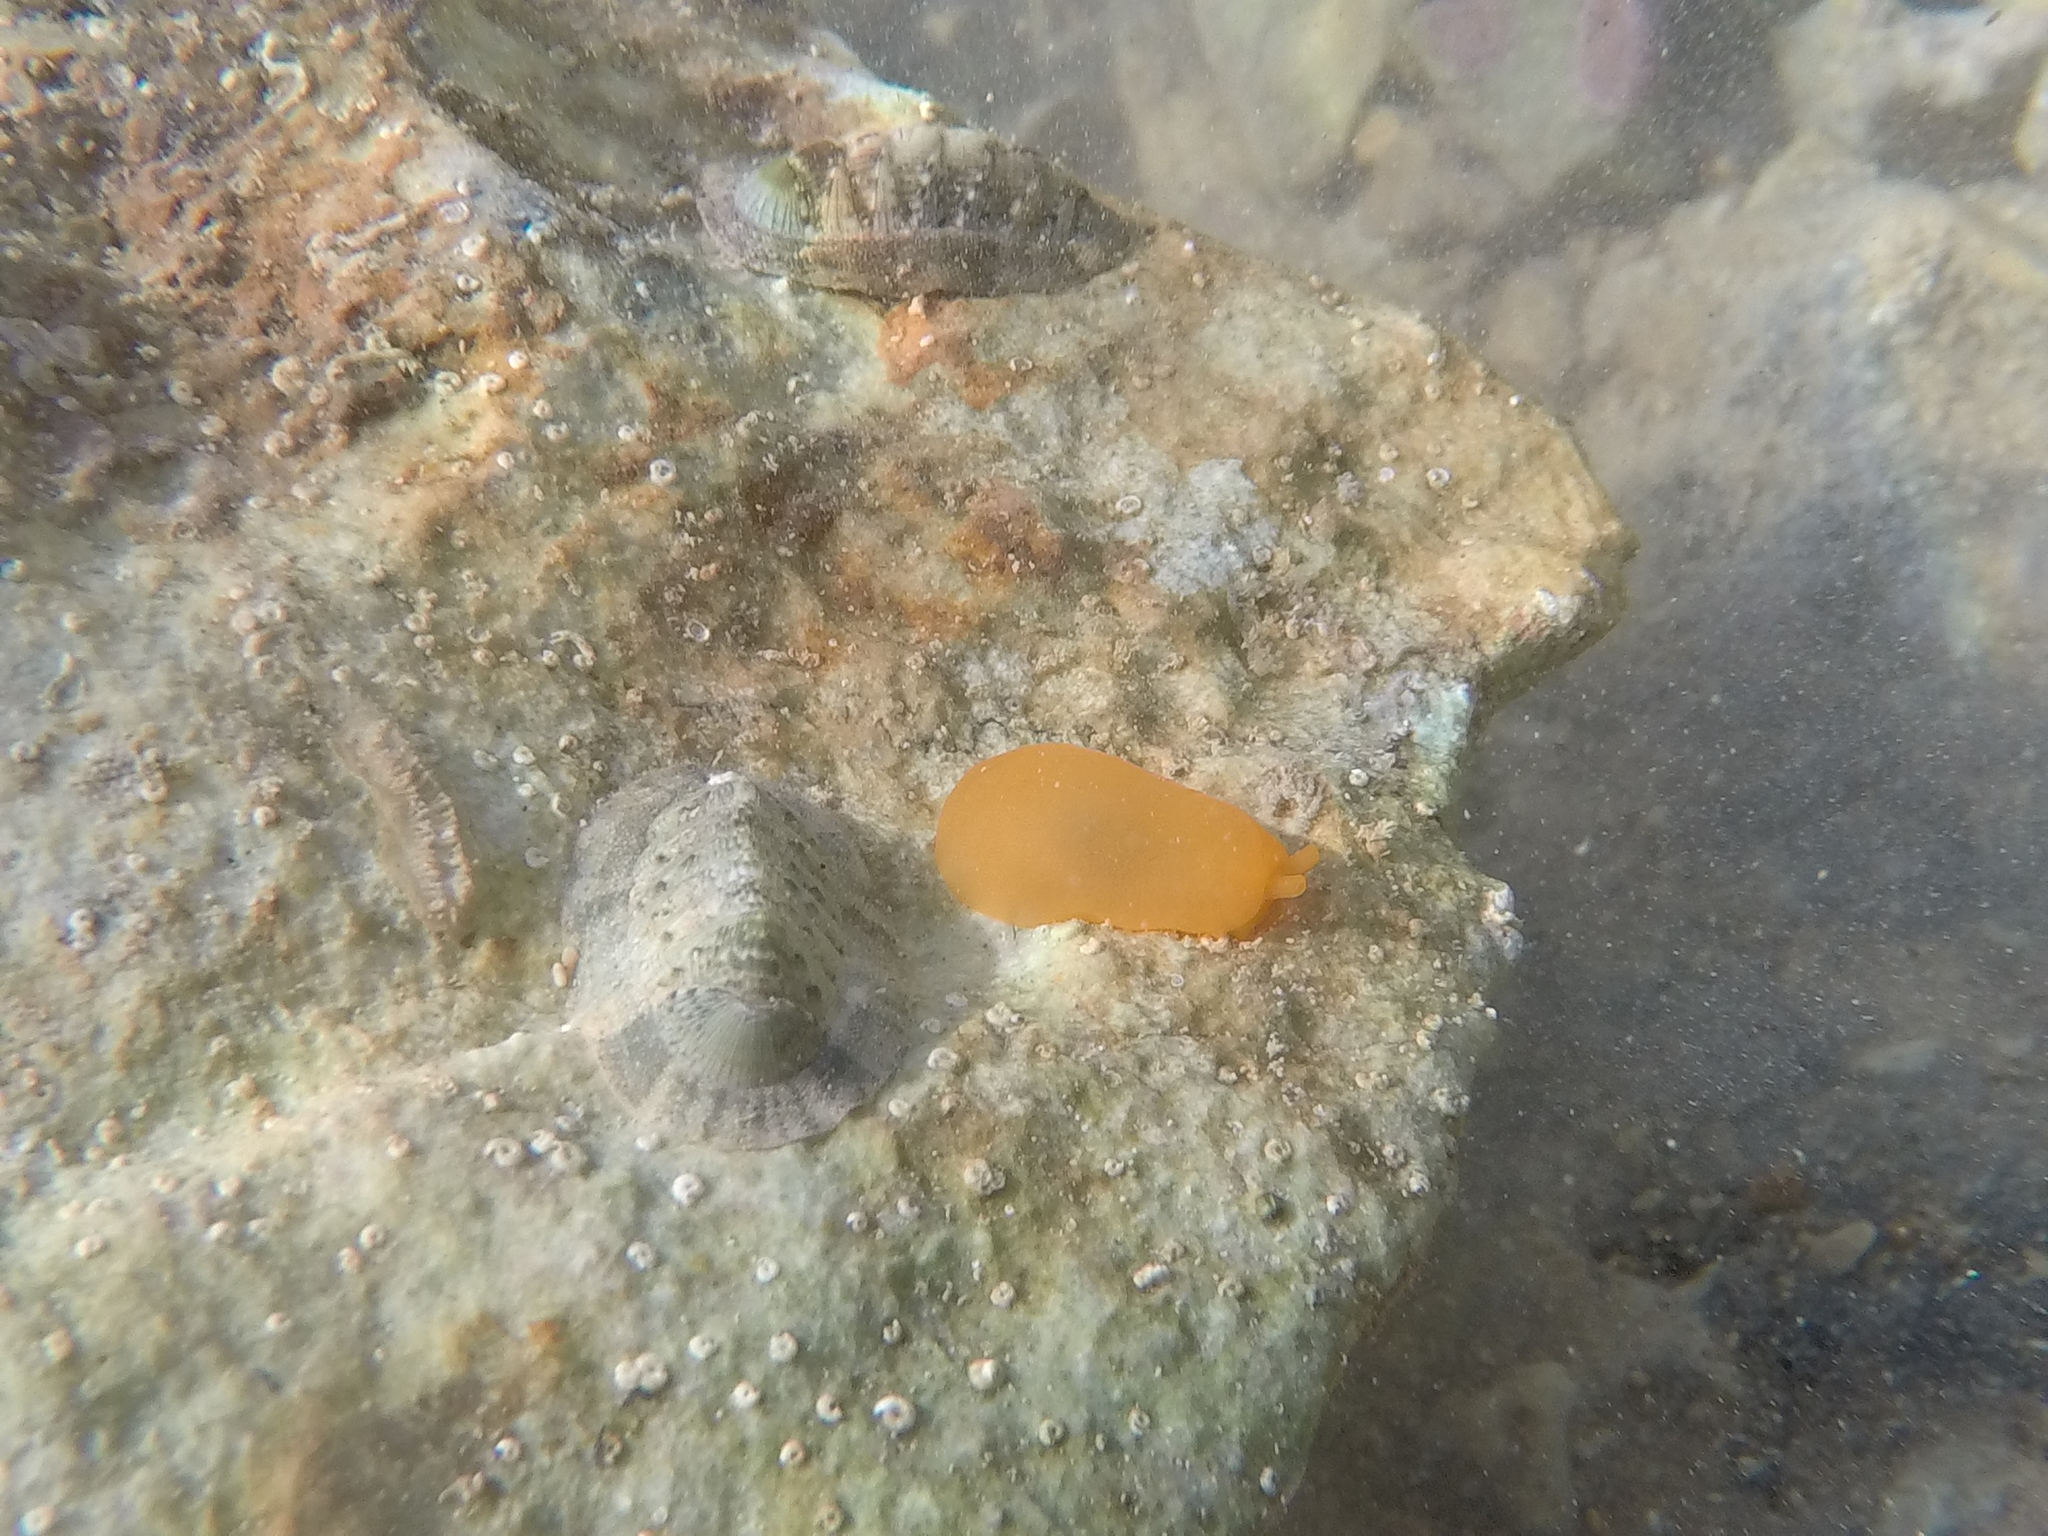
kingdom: Animalia
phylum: Mollusca
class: Gastropoda
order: Pleurobranchida
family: Pleurobranchidae
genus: Berthellina
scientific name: Berthellina edwardsii
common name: Peach seaslug
